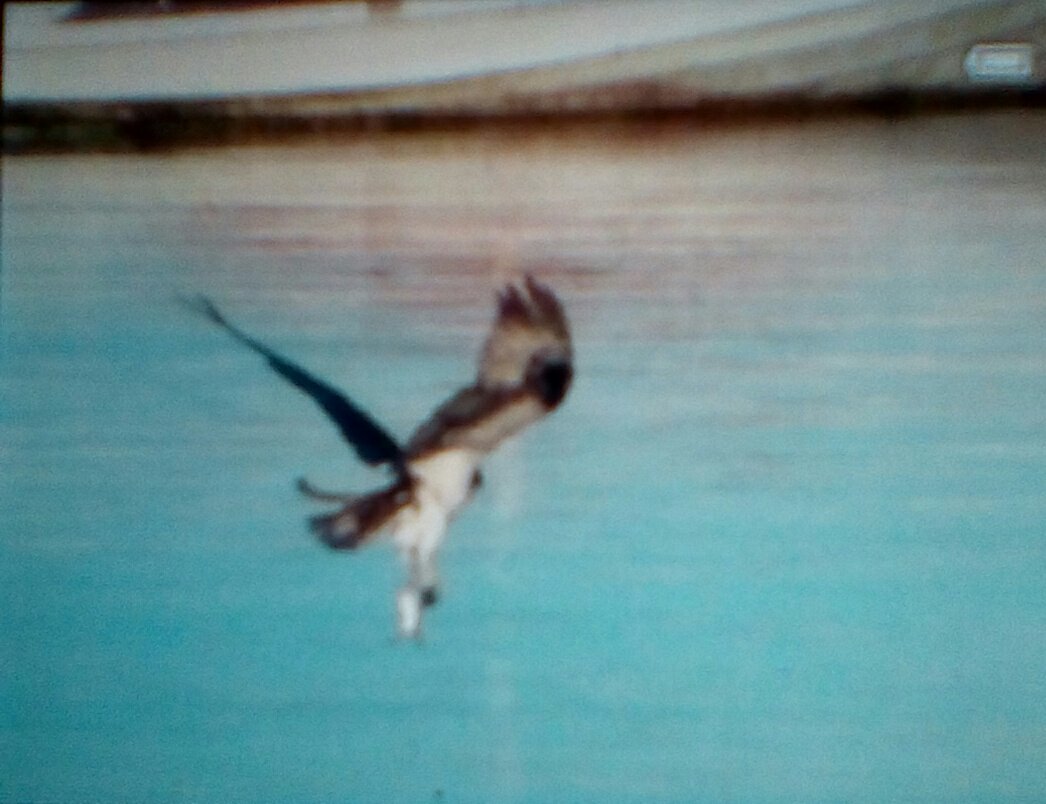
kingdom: Animalia
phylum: Chordata
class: Aves
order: Accipitriformes
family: Pandionidae
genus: Pandion
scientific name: Pandion haliaetus
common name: Osprey
